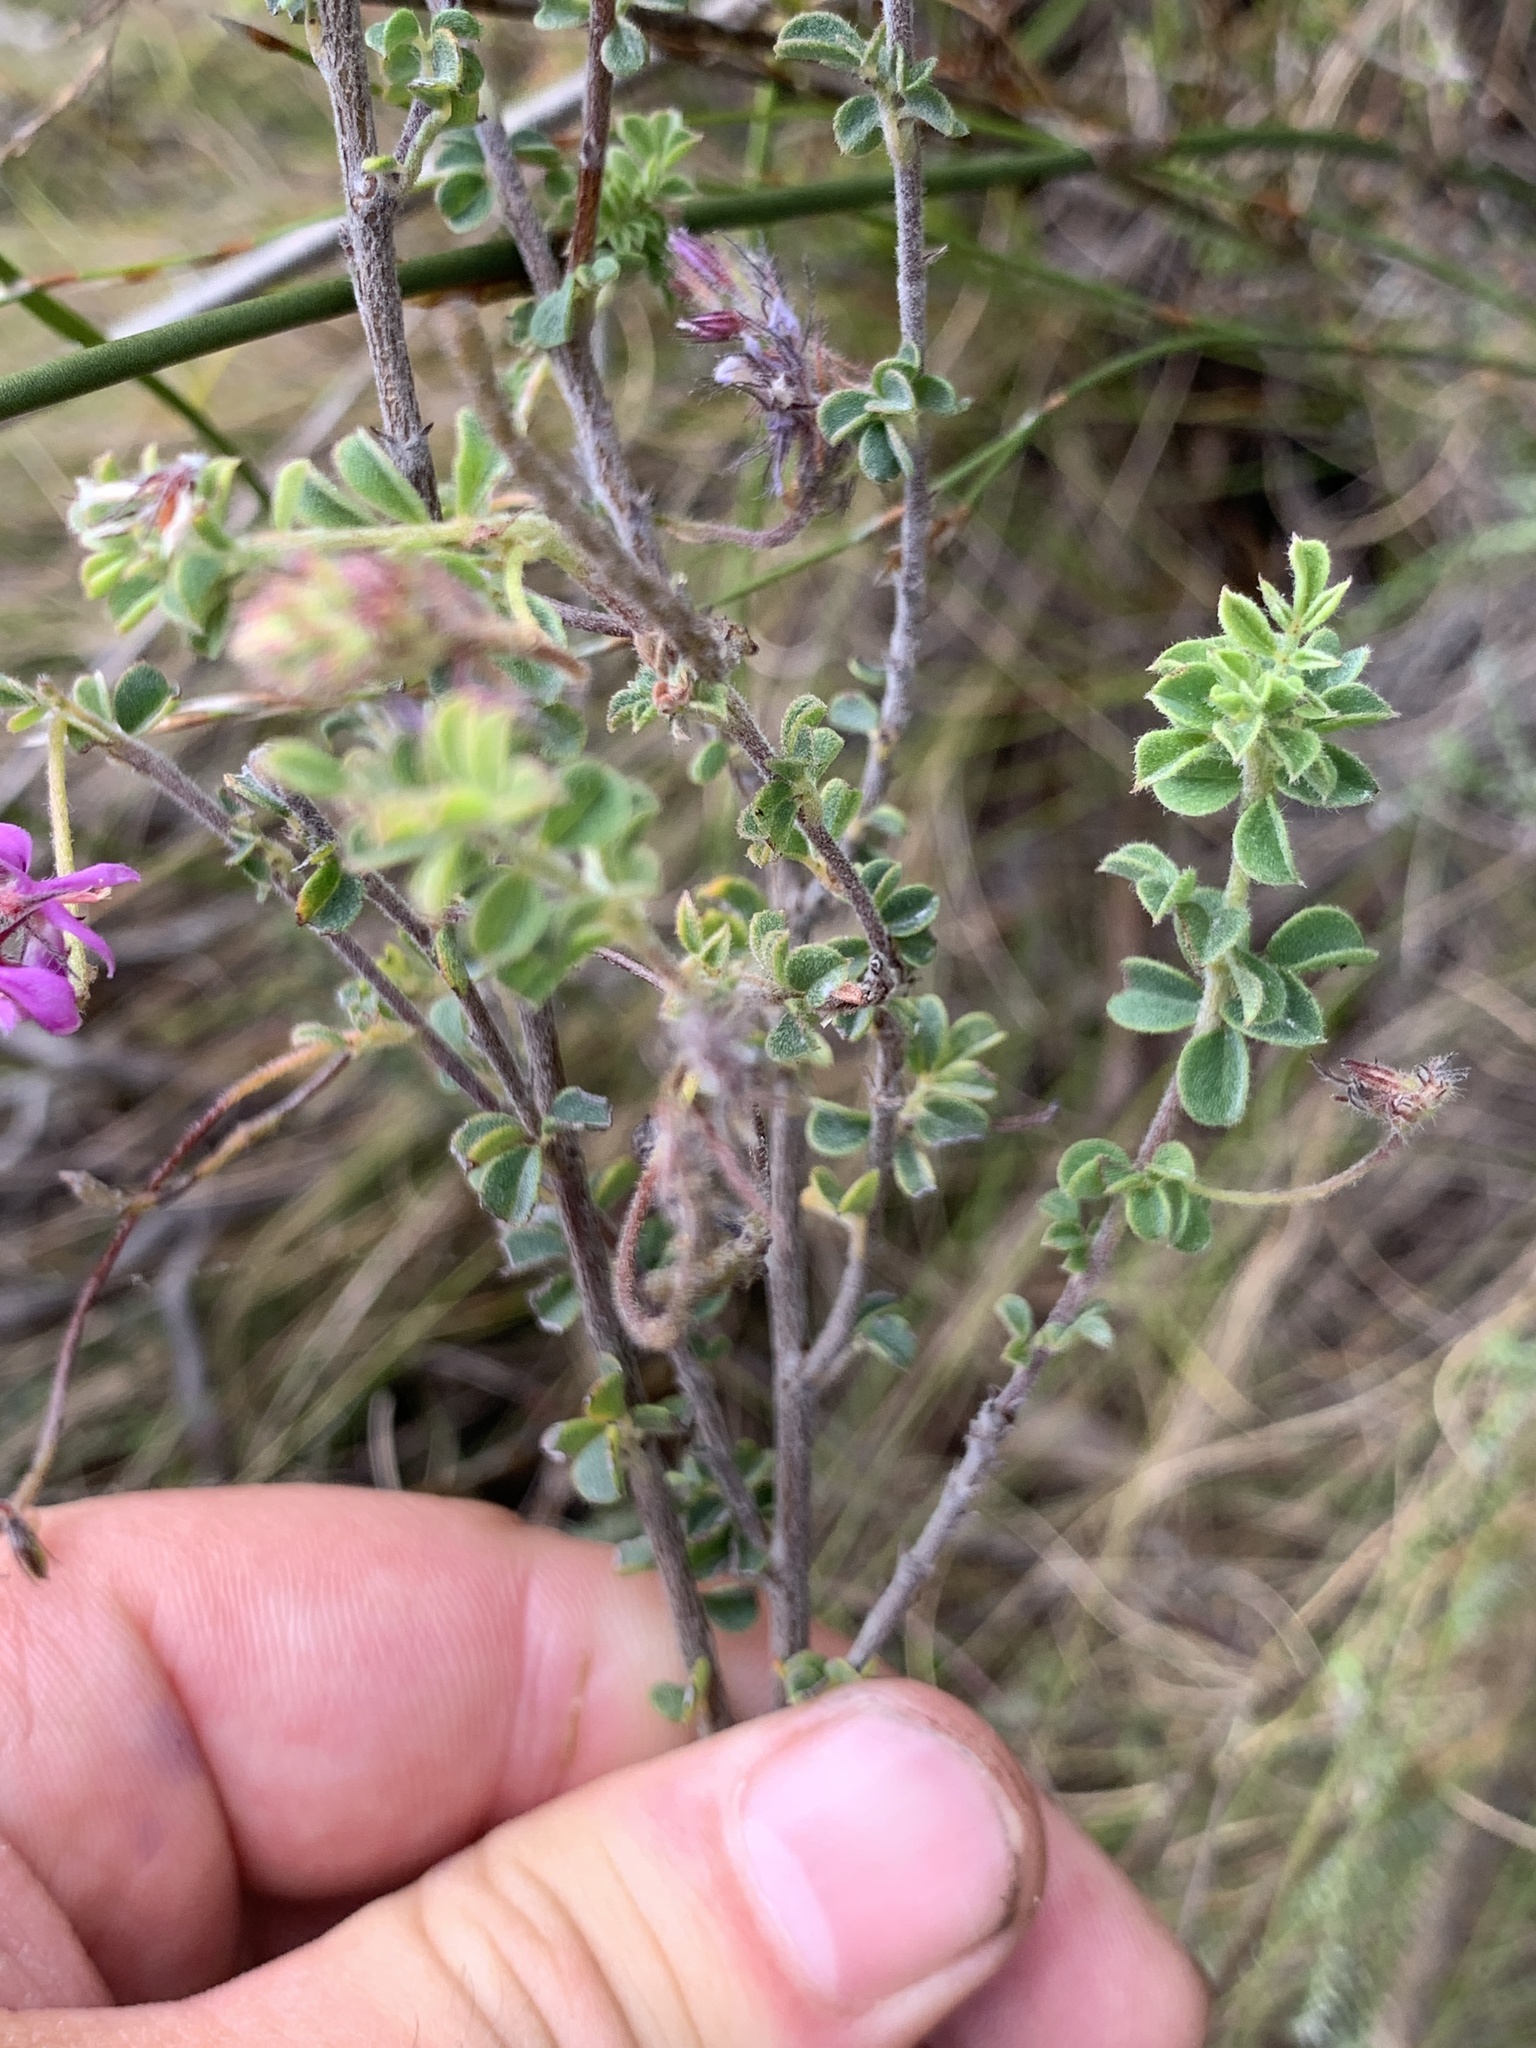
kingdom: Plantae
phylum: Tracheophyta
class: Magnoliopsida
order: Fabales
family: Fabaceae
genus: Indigofera
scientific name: Indigofera alopecuroides
